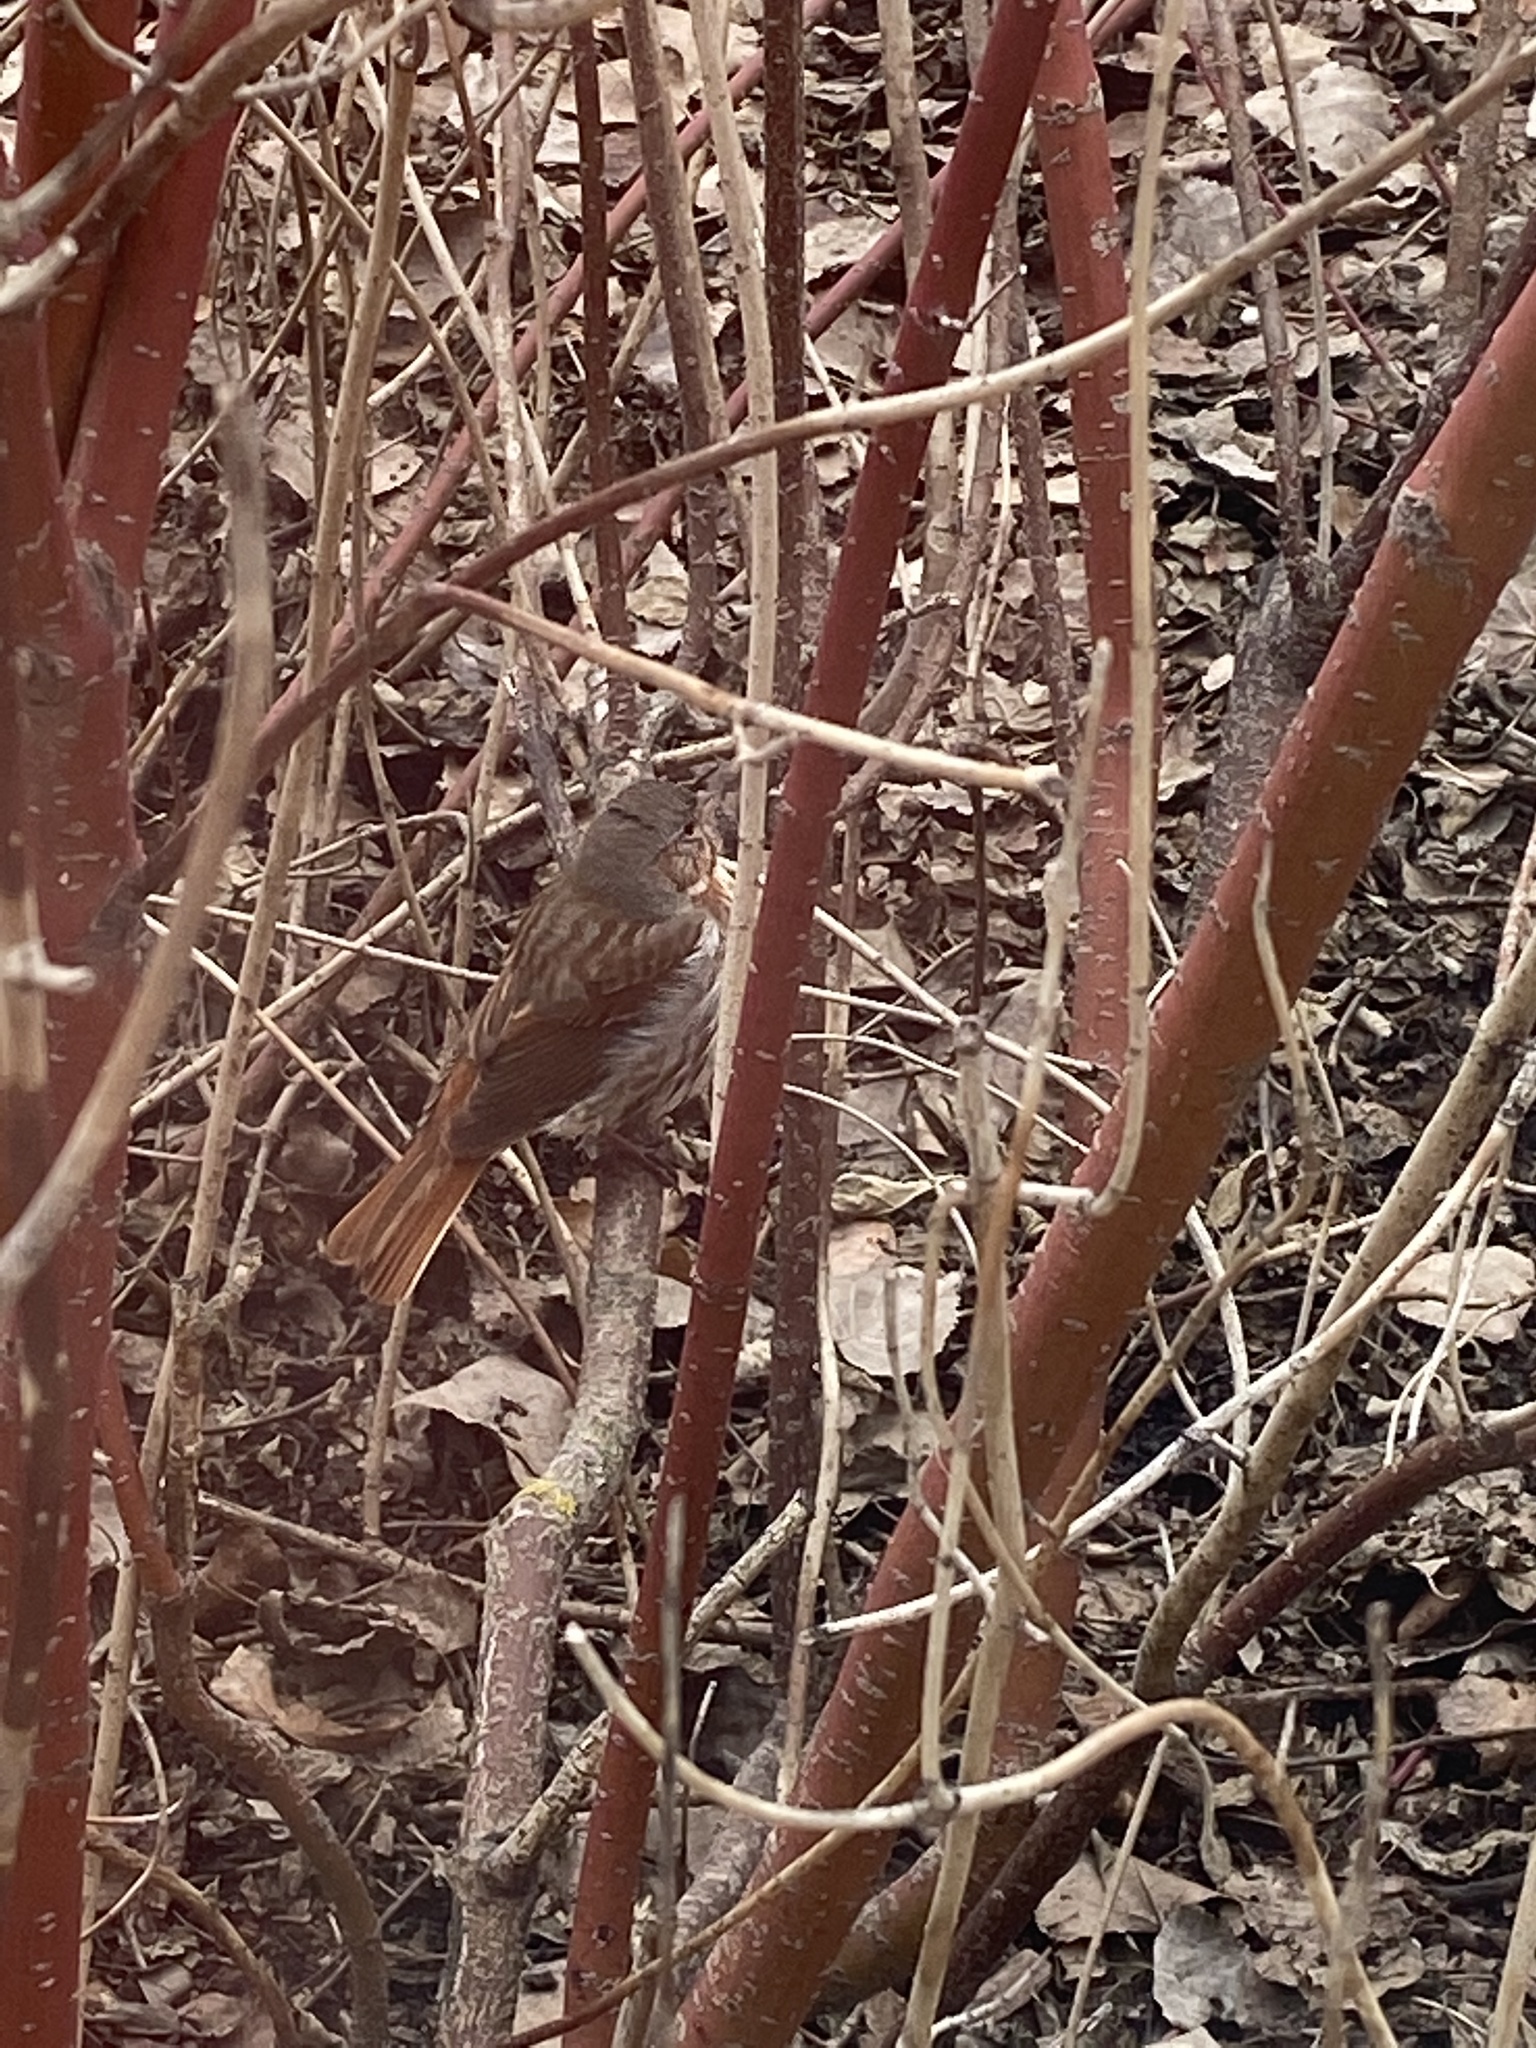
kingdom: Animalia
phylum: Chordata
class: Aves
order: Passeriformes
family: Passerellidae
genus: Passerella
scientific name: Passerella iliaca
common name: Fox sparrow
